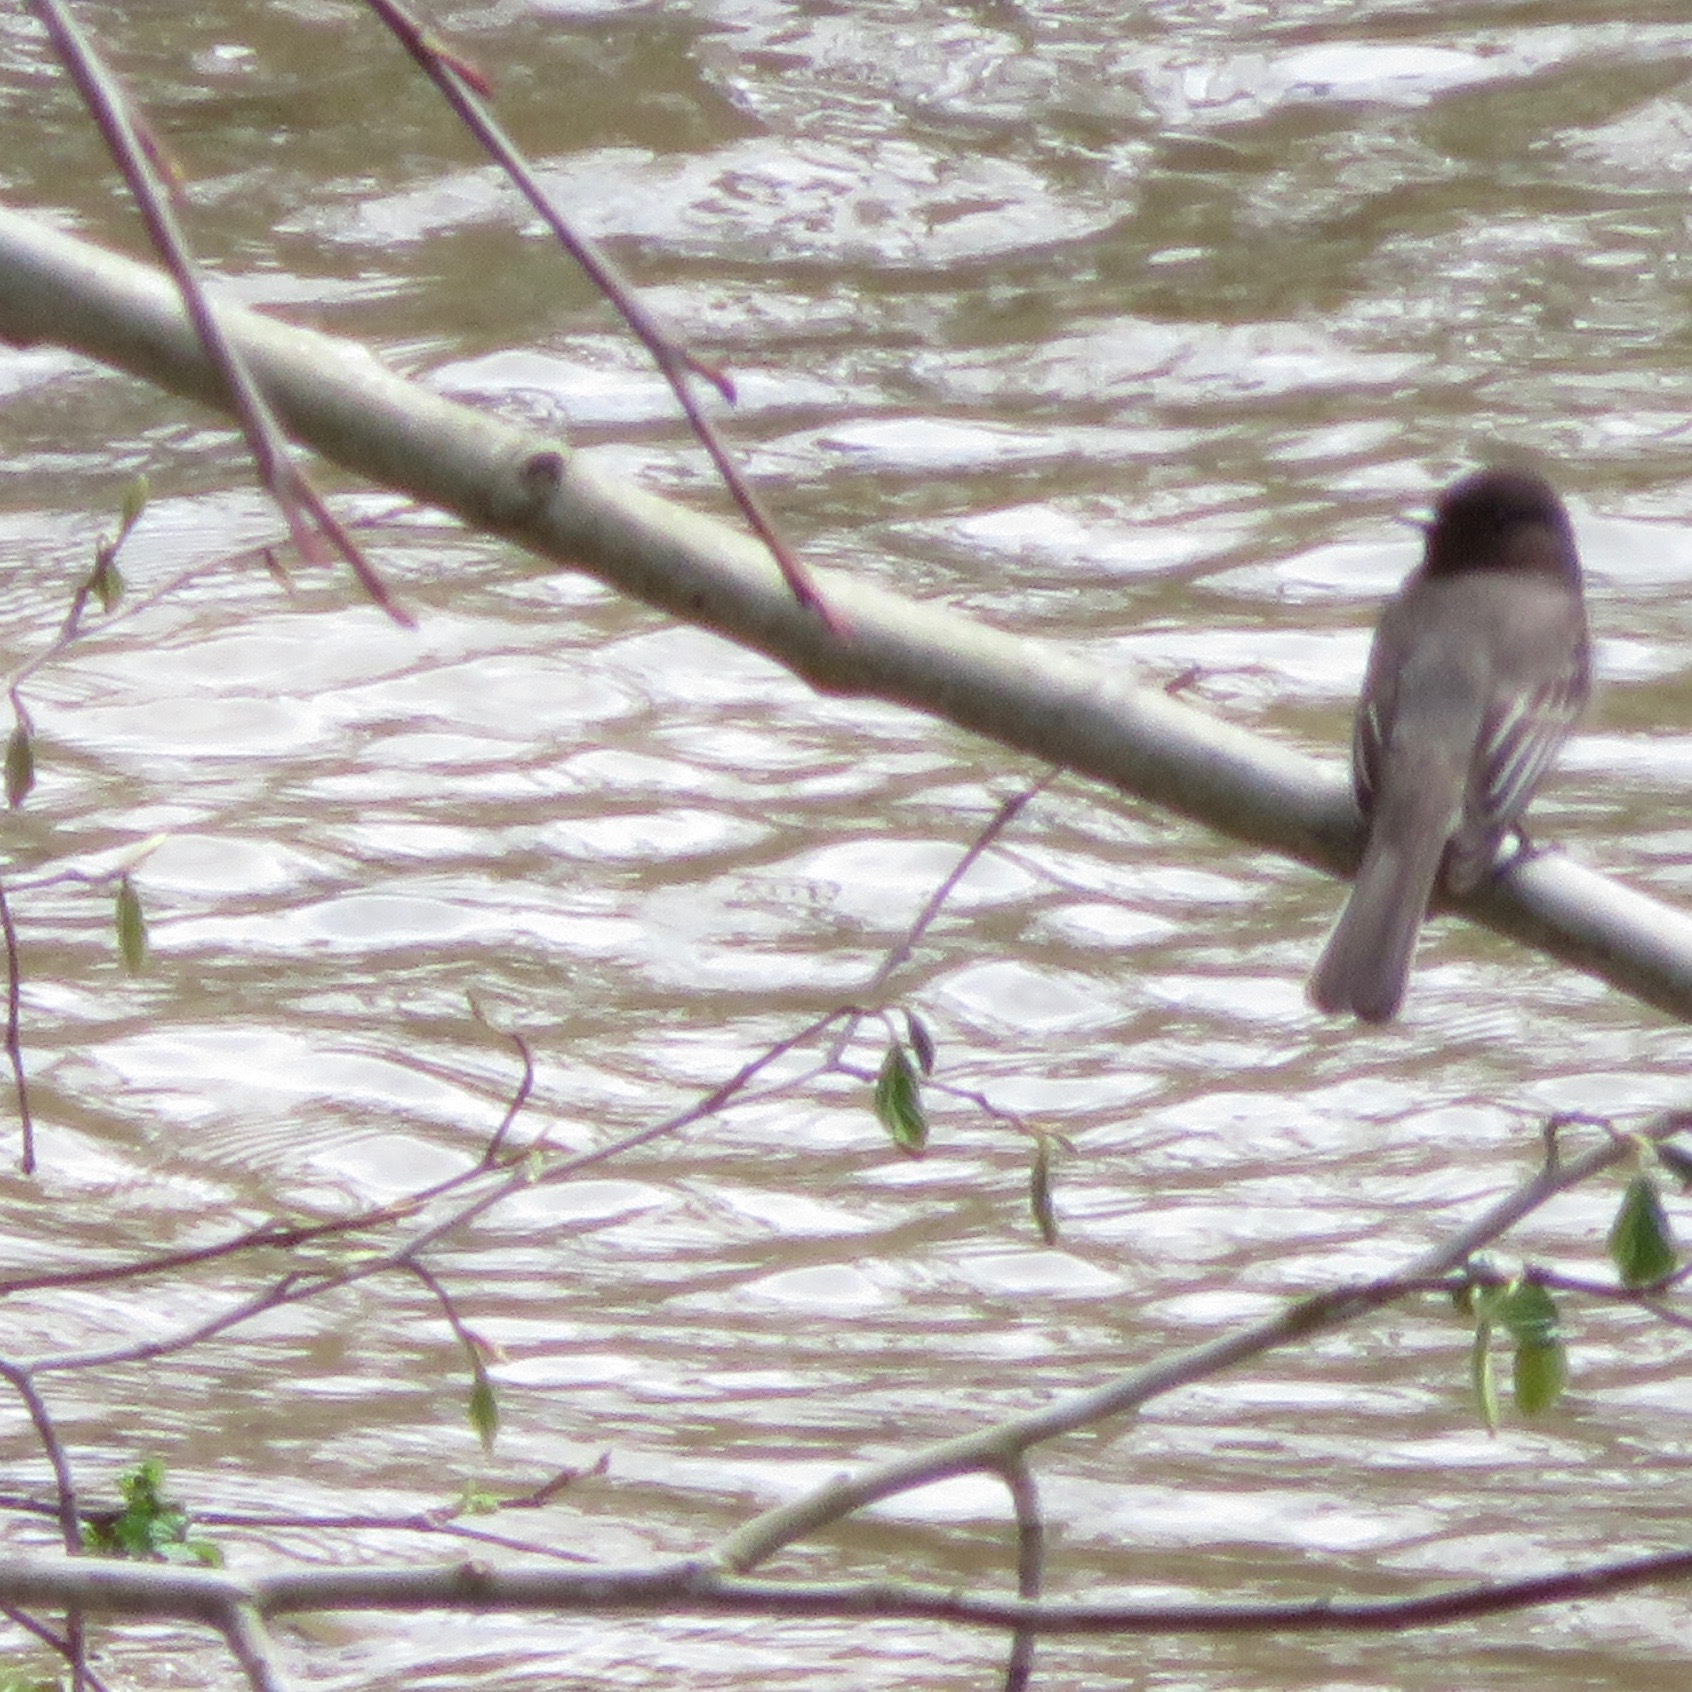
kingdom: Animalia
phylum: Chordata
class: Aves
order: Passeriformes
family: Tyrannidae
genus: Sayornis
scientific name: Sayornis nigricans
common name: Black phoebe
